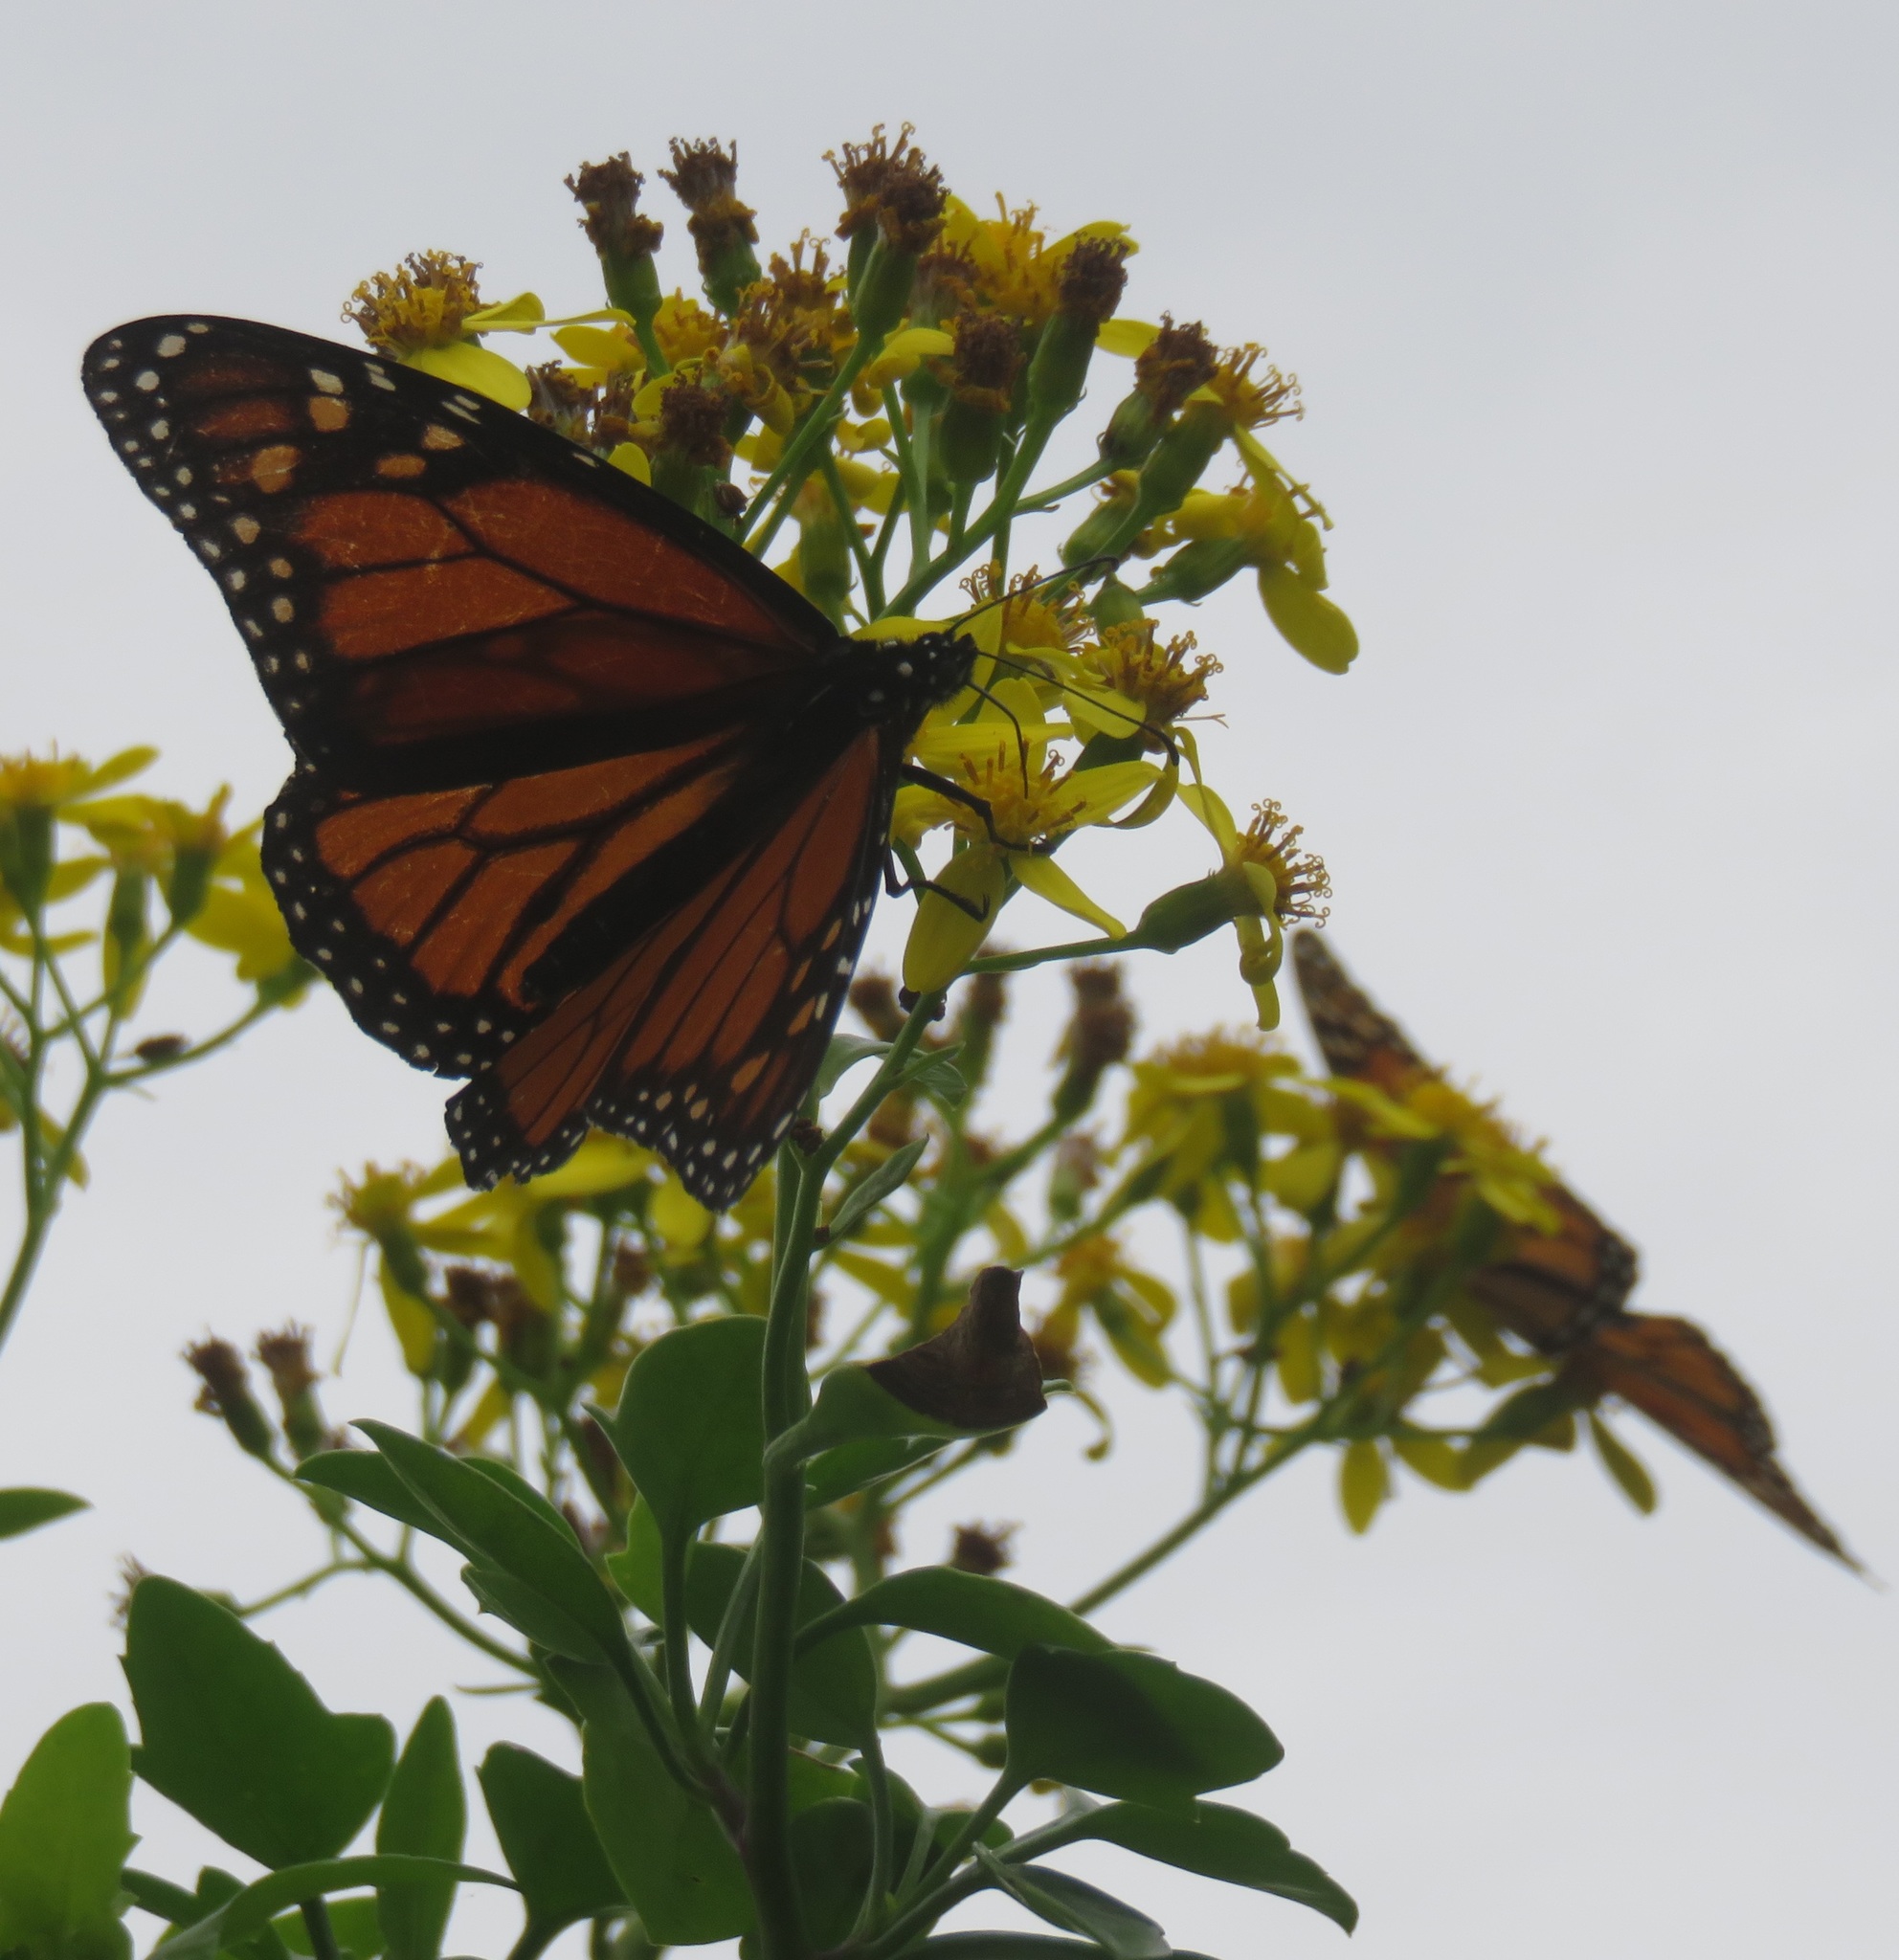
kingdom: Animalia
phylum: Arthropoda
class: Insecta
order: Lepidoptera
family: Nymphalidae
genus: Danaus
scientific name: Danaus plexippus
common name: Monarch
